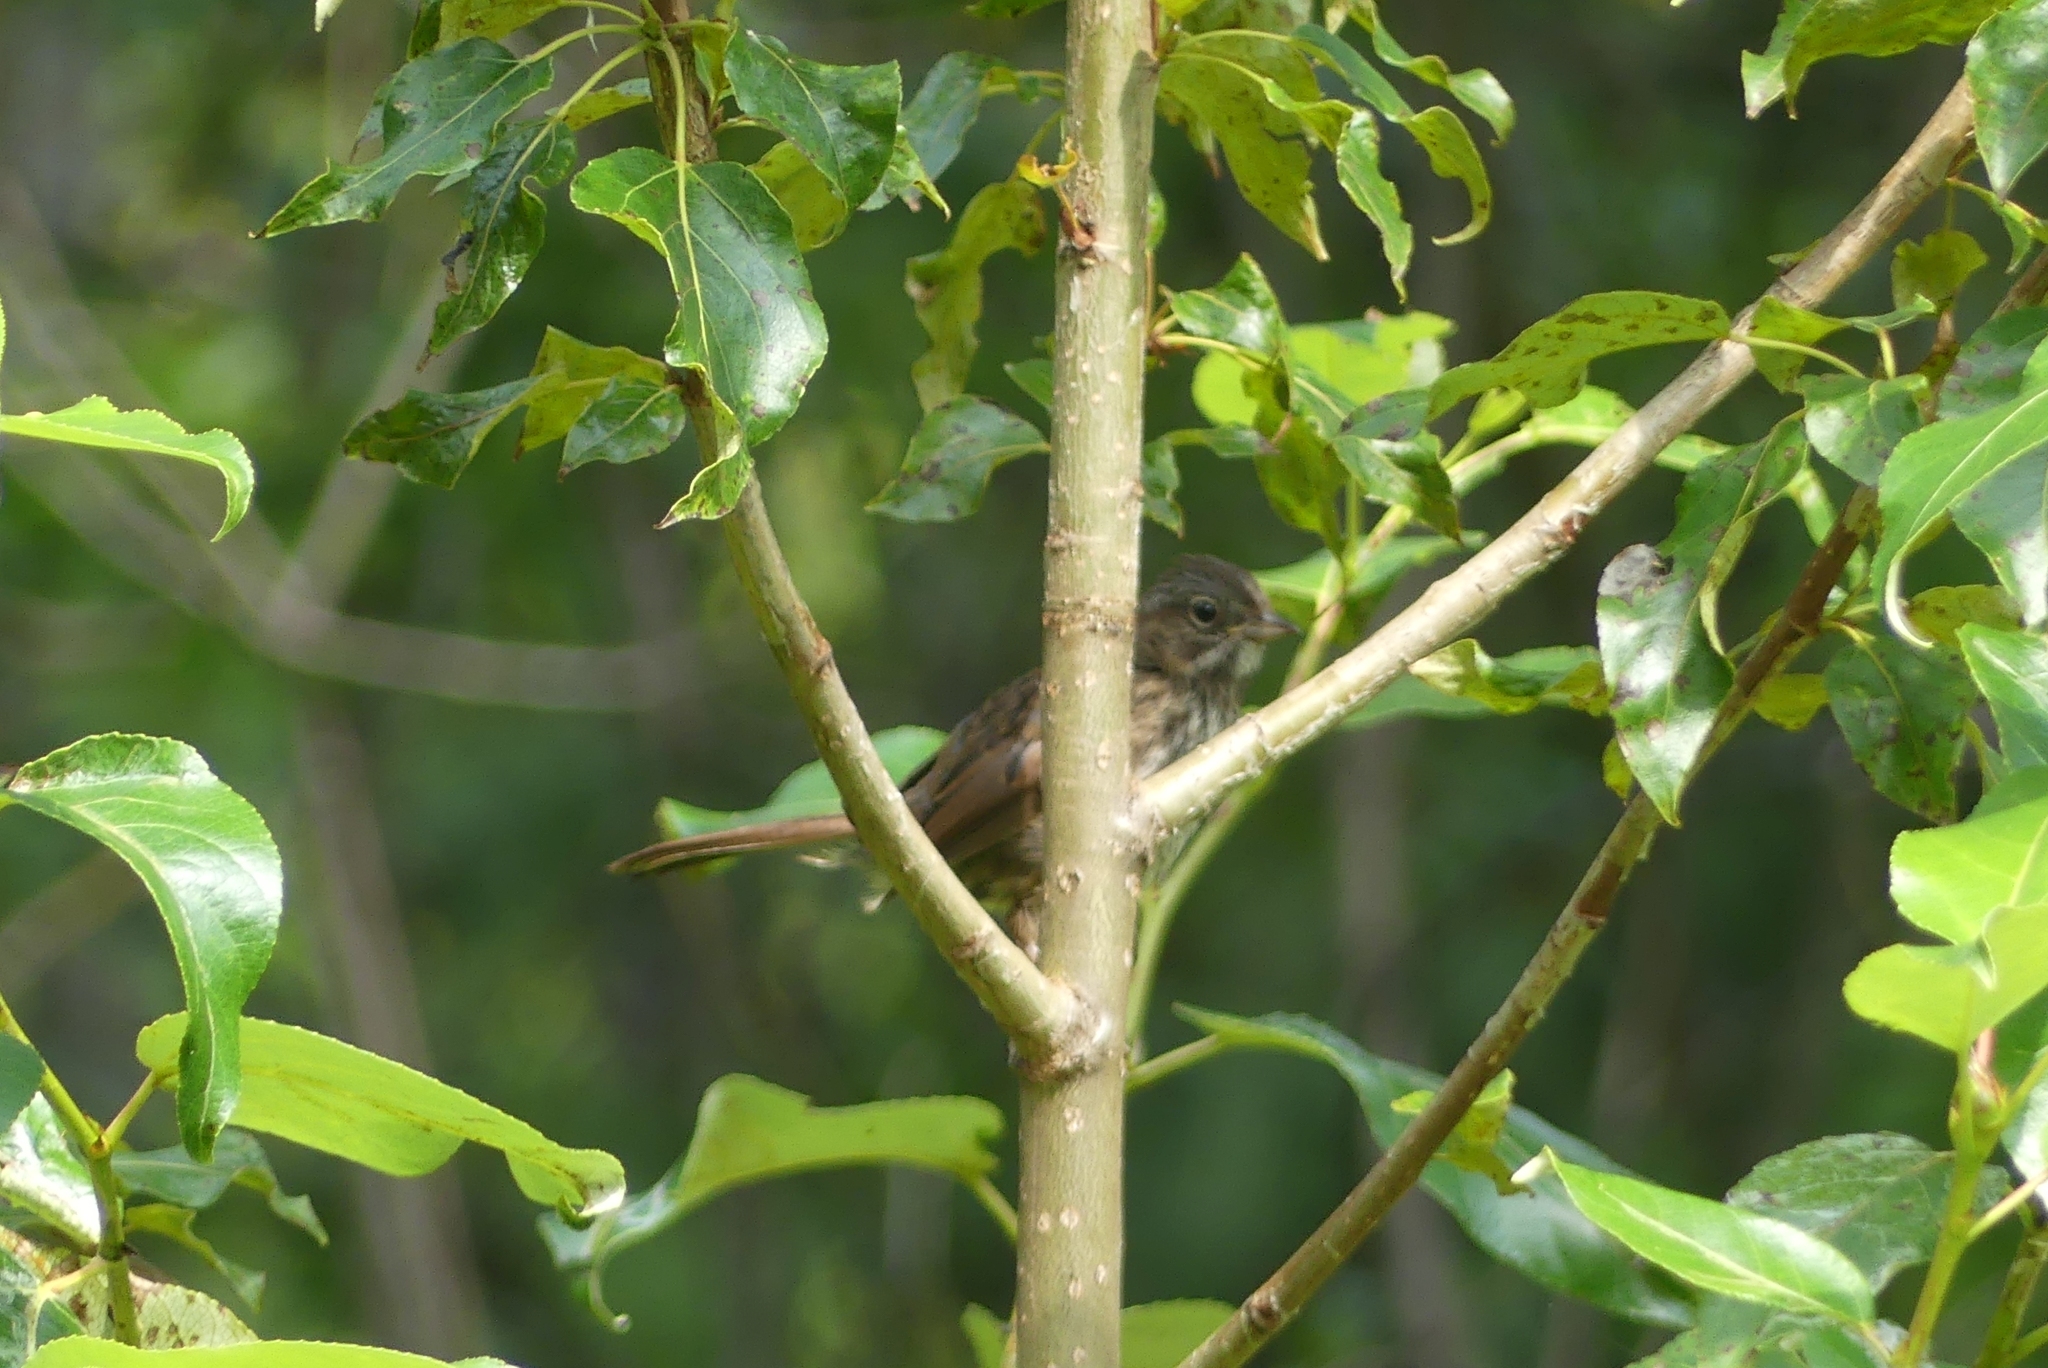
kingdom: Animalia
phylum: Chordata
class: Aves
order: Passeriformes
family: Passerellidae
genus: Melospiza
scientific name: Melospiza melodia
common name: Song sparrow
